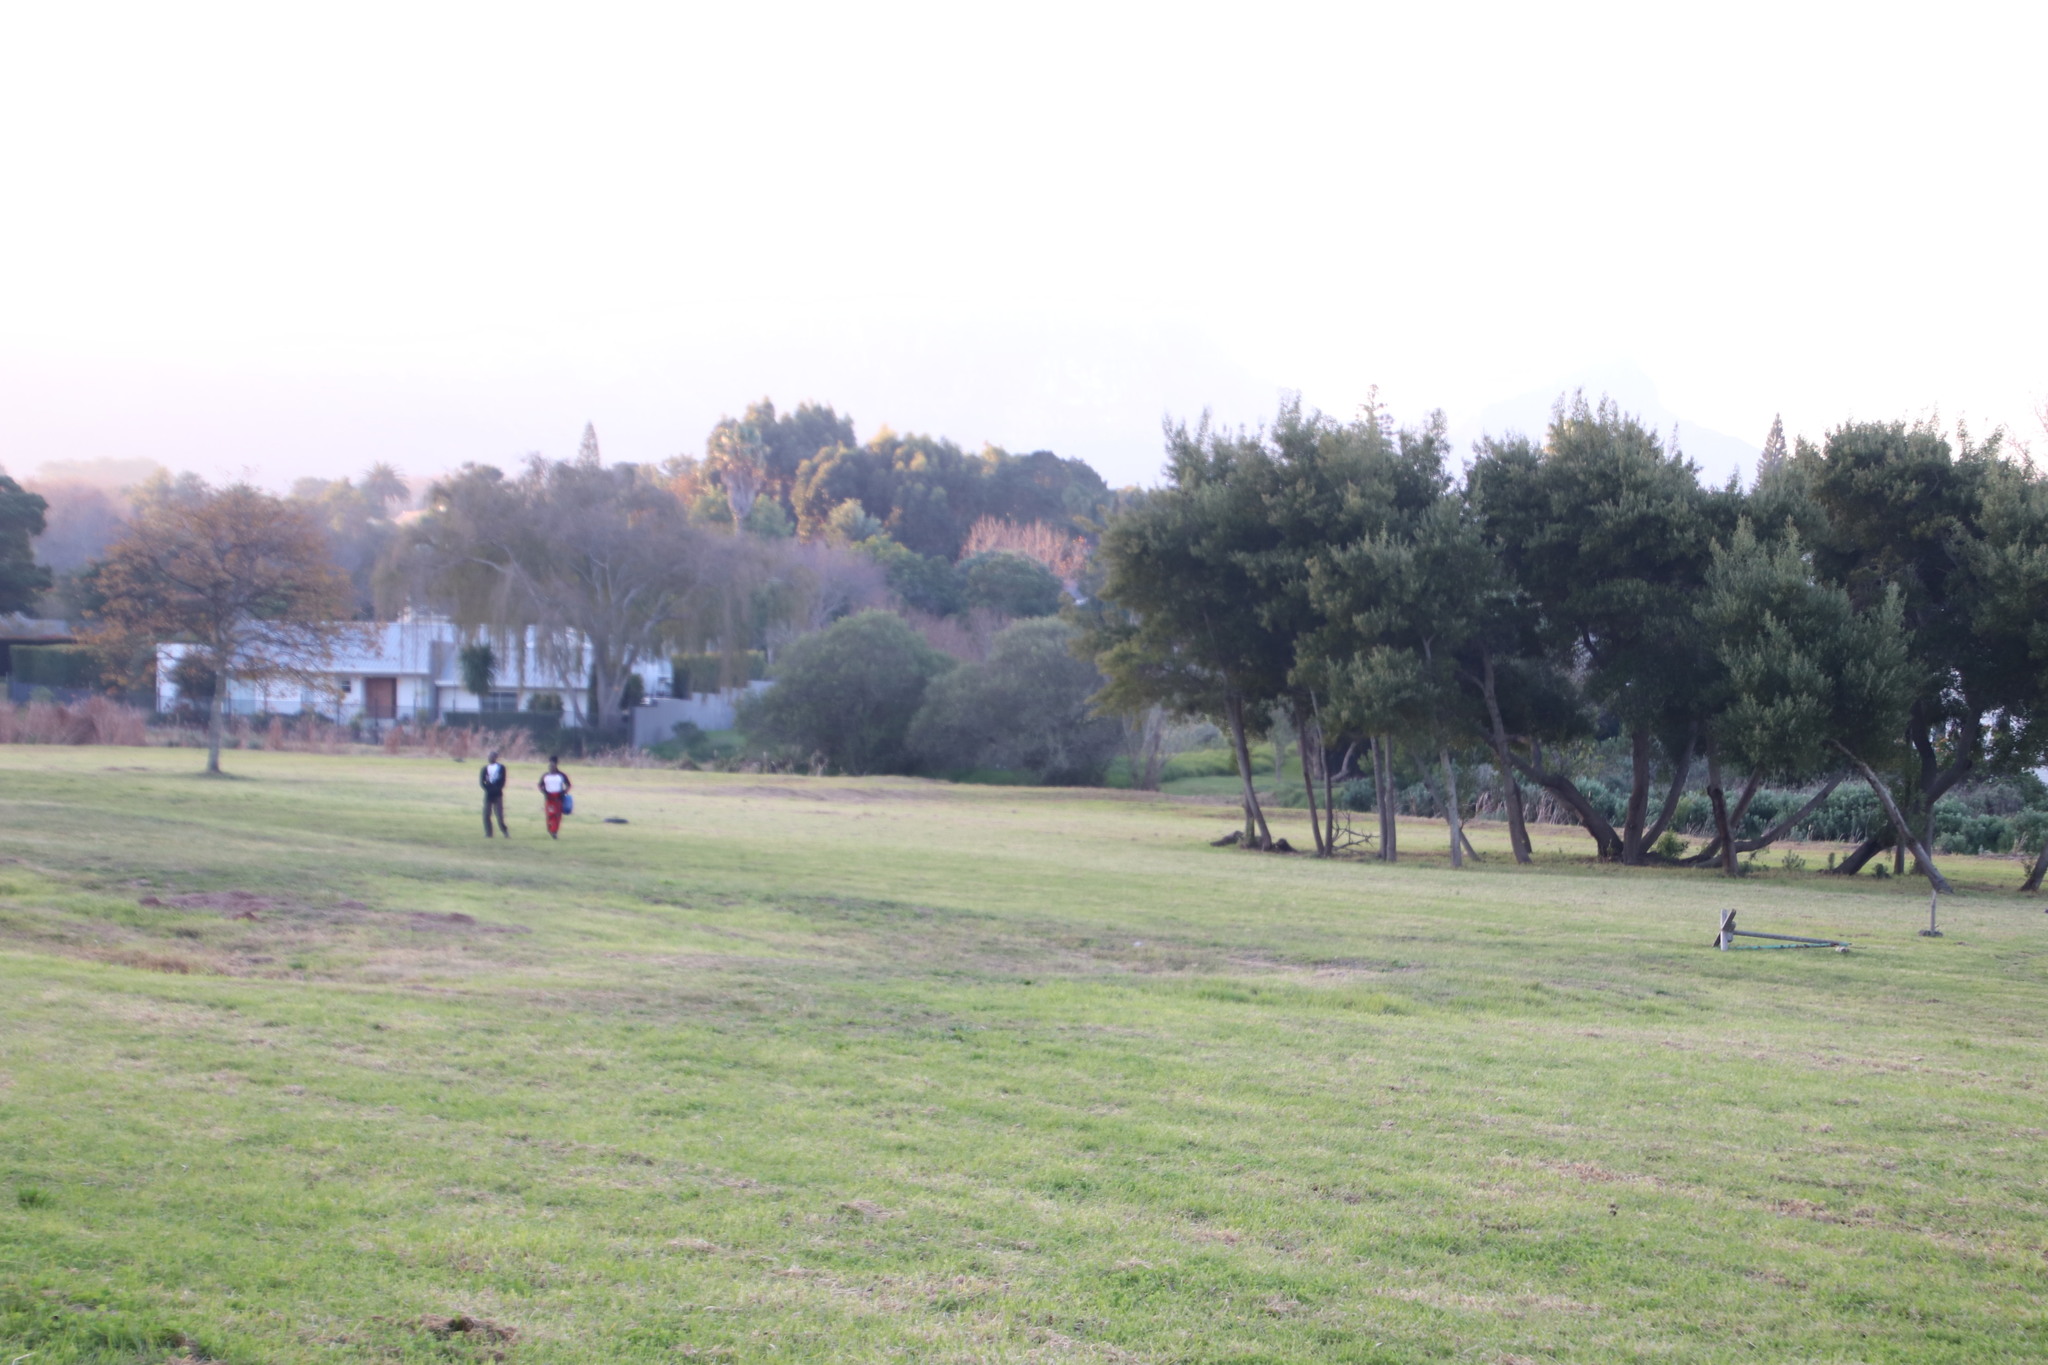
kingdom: Plantae
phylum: Tracheophyta
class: Liliopsida
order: Poales
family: Poaceae
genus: Cenchrus
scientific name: Cenchrus clandestinus
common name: Kikuyugrass
